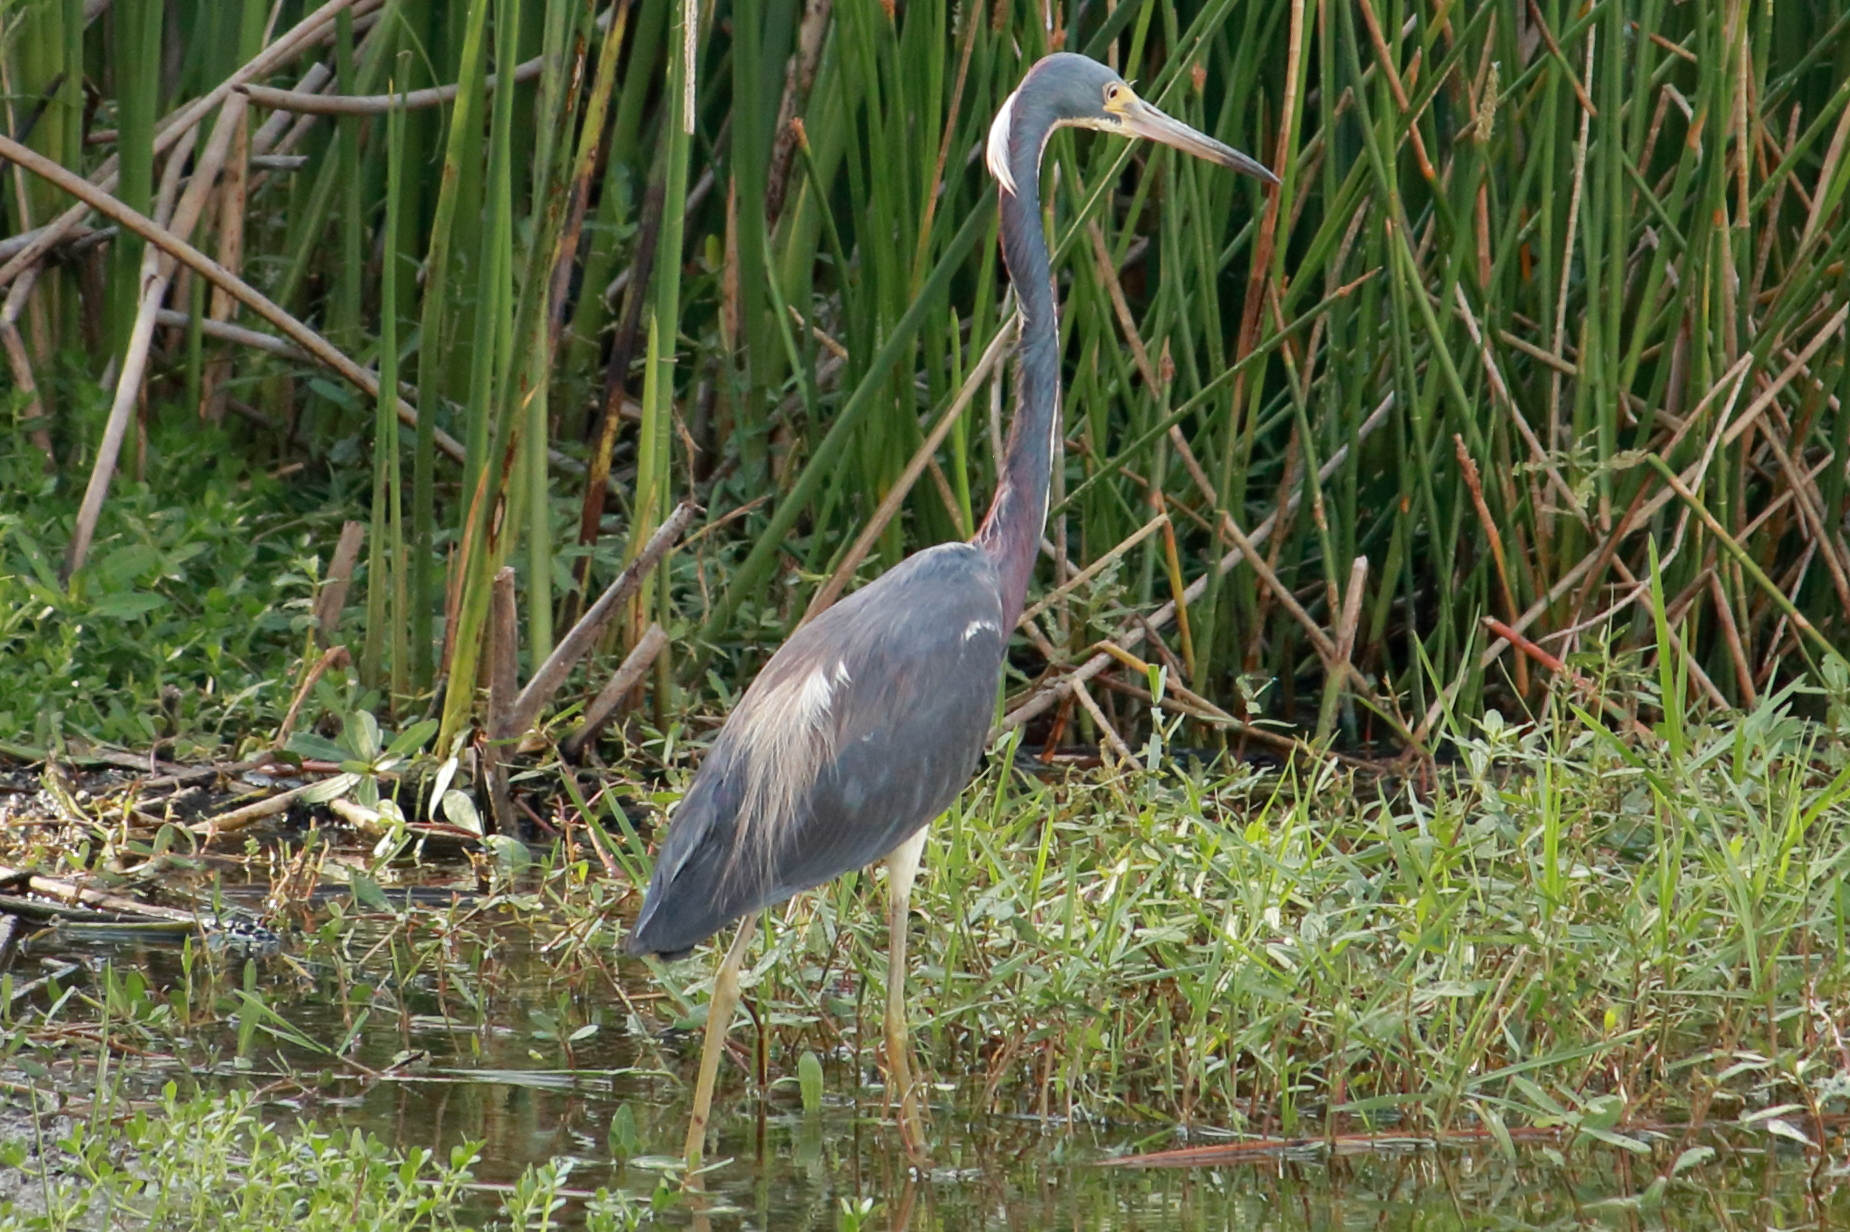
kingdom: Animalia
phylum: Chordata
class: Aves
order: Pelecaniformes
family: Ardeidae
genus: Egretta
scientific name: Egretta tricolor
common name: Tricolored heron
